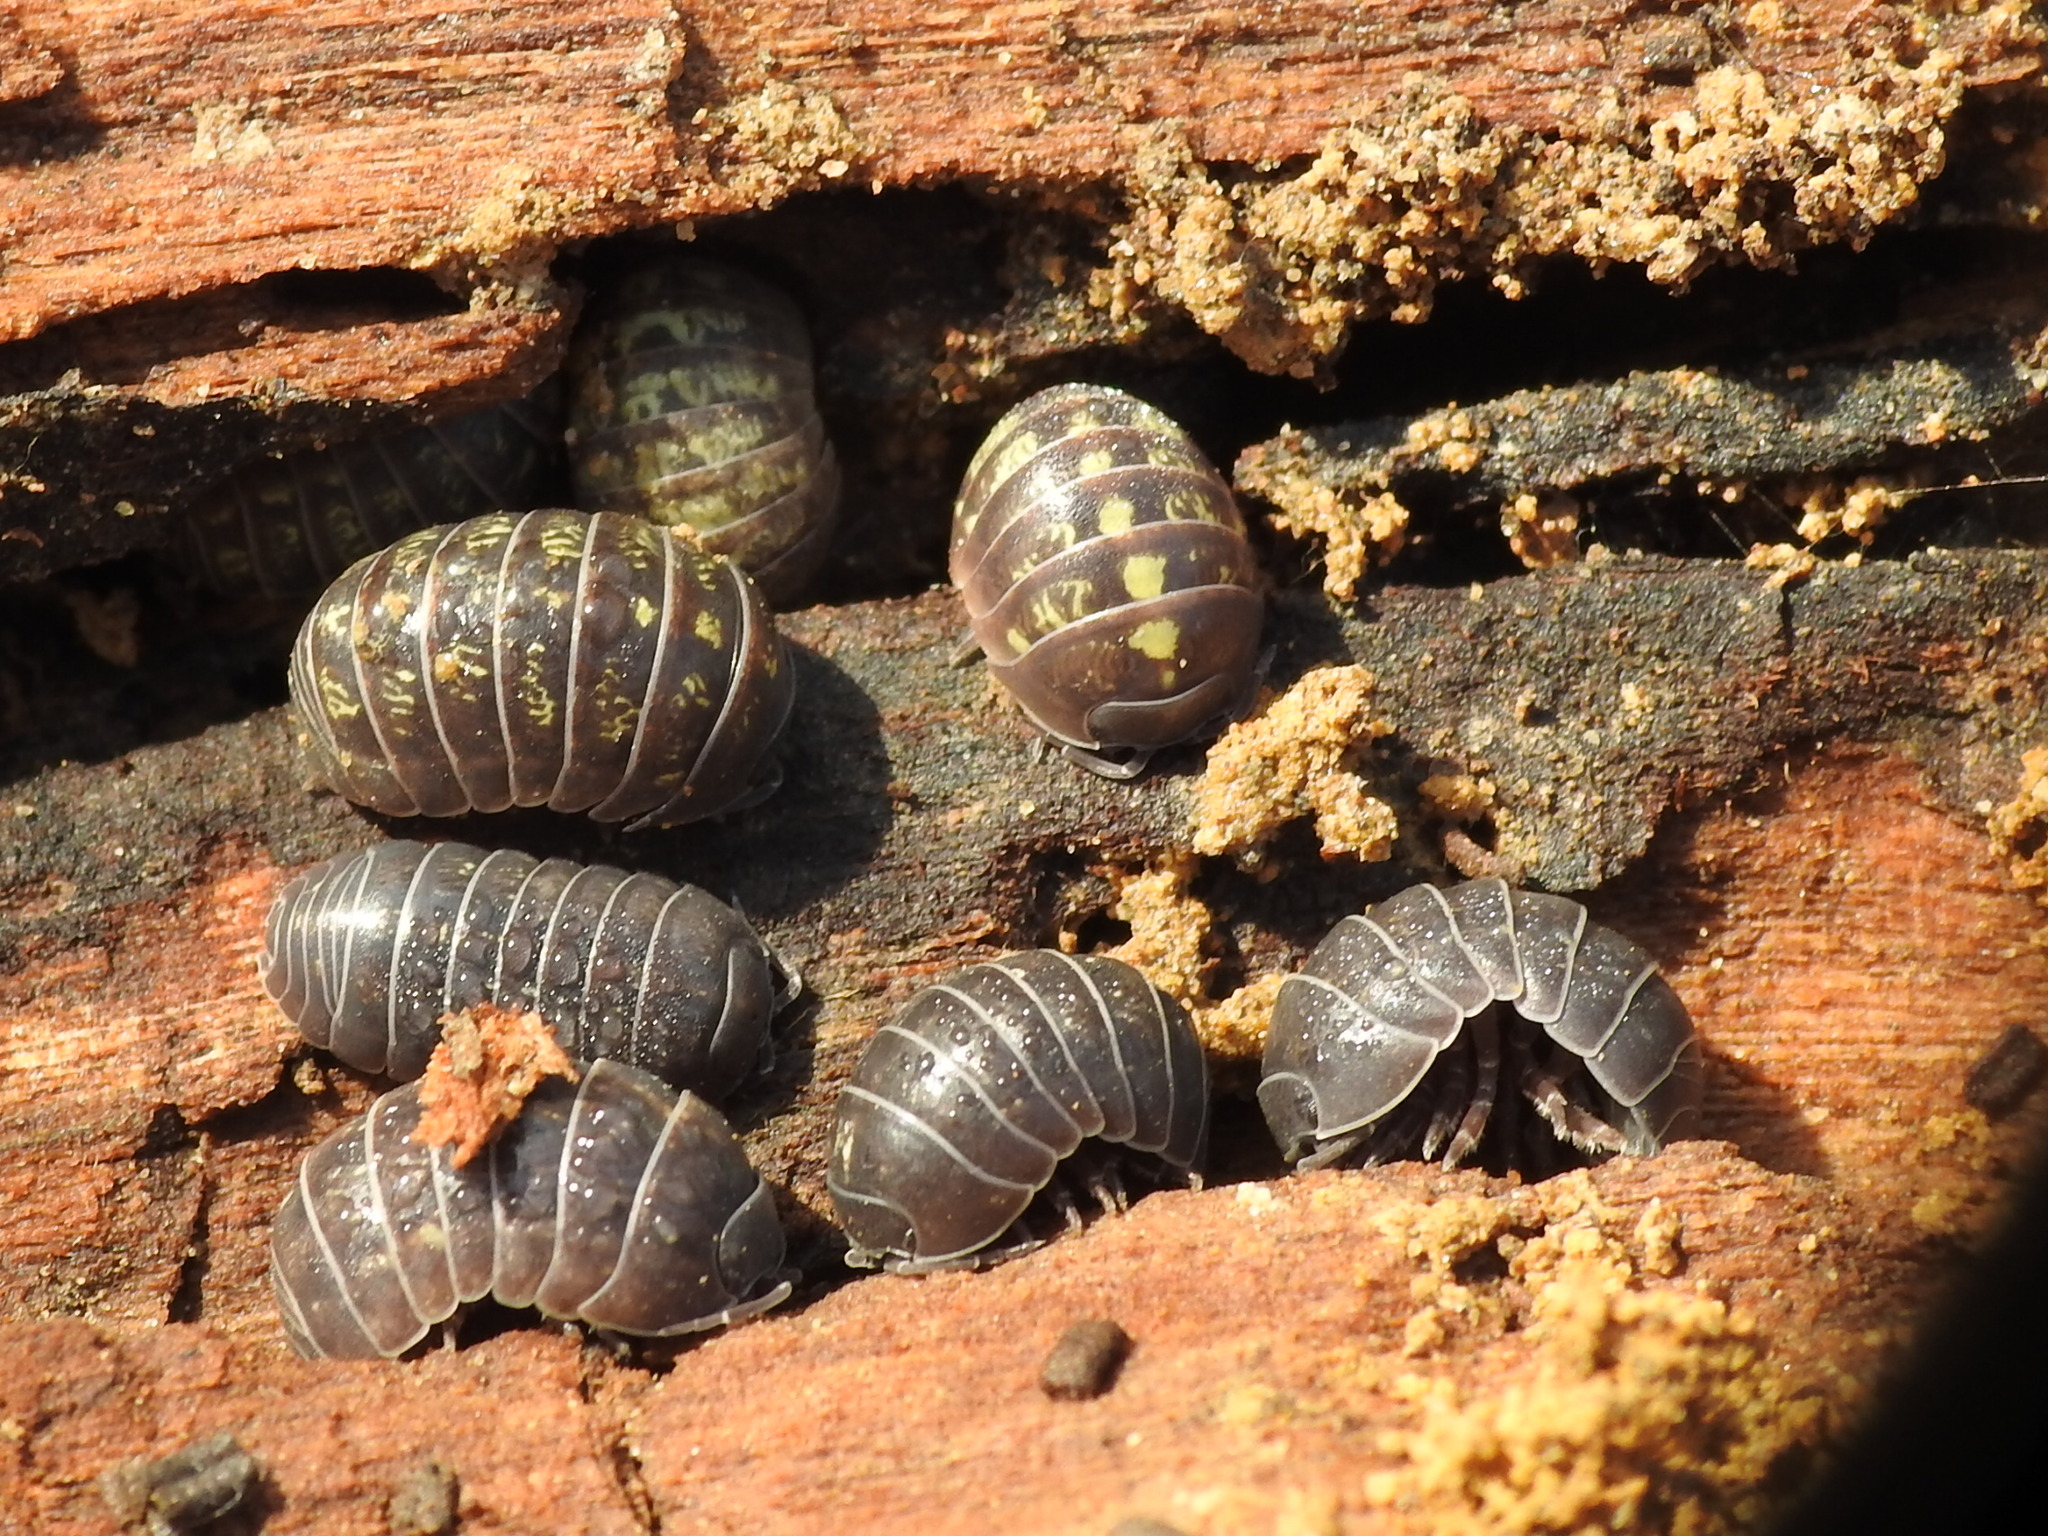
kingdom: Animalia
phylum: Arthropoda
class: Malacostraca
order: Isopoda
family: Armadillidiidae
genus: Armadillidium
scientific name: Armadillidium vulgare
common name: Common pill woodlouse
